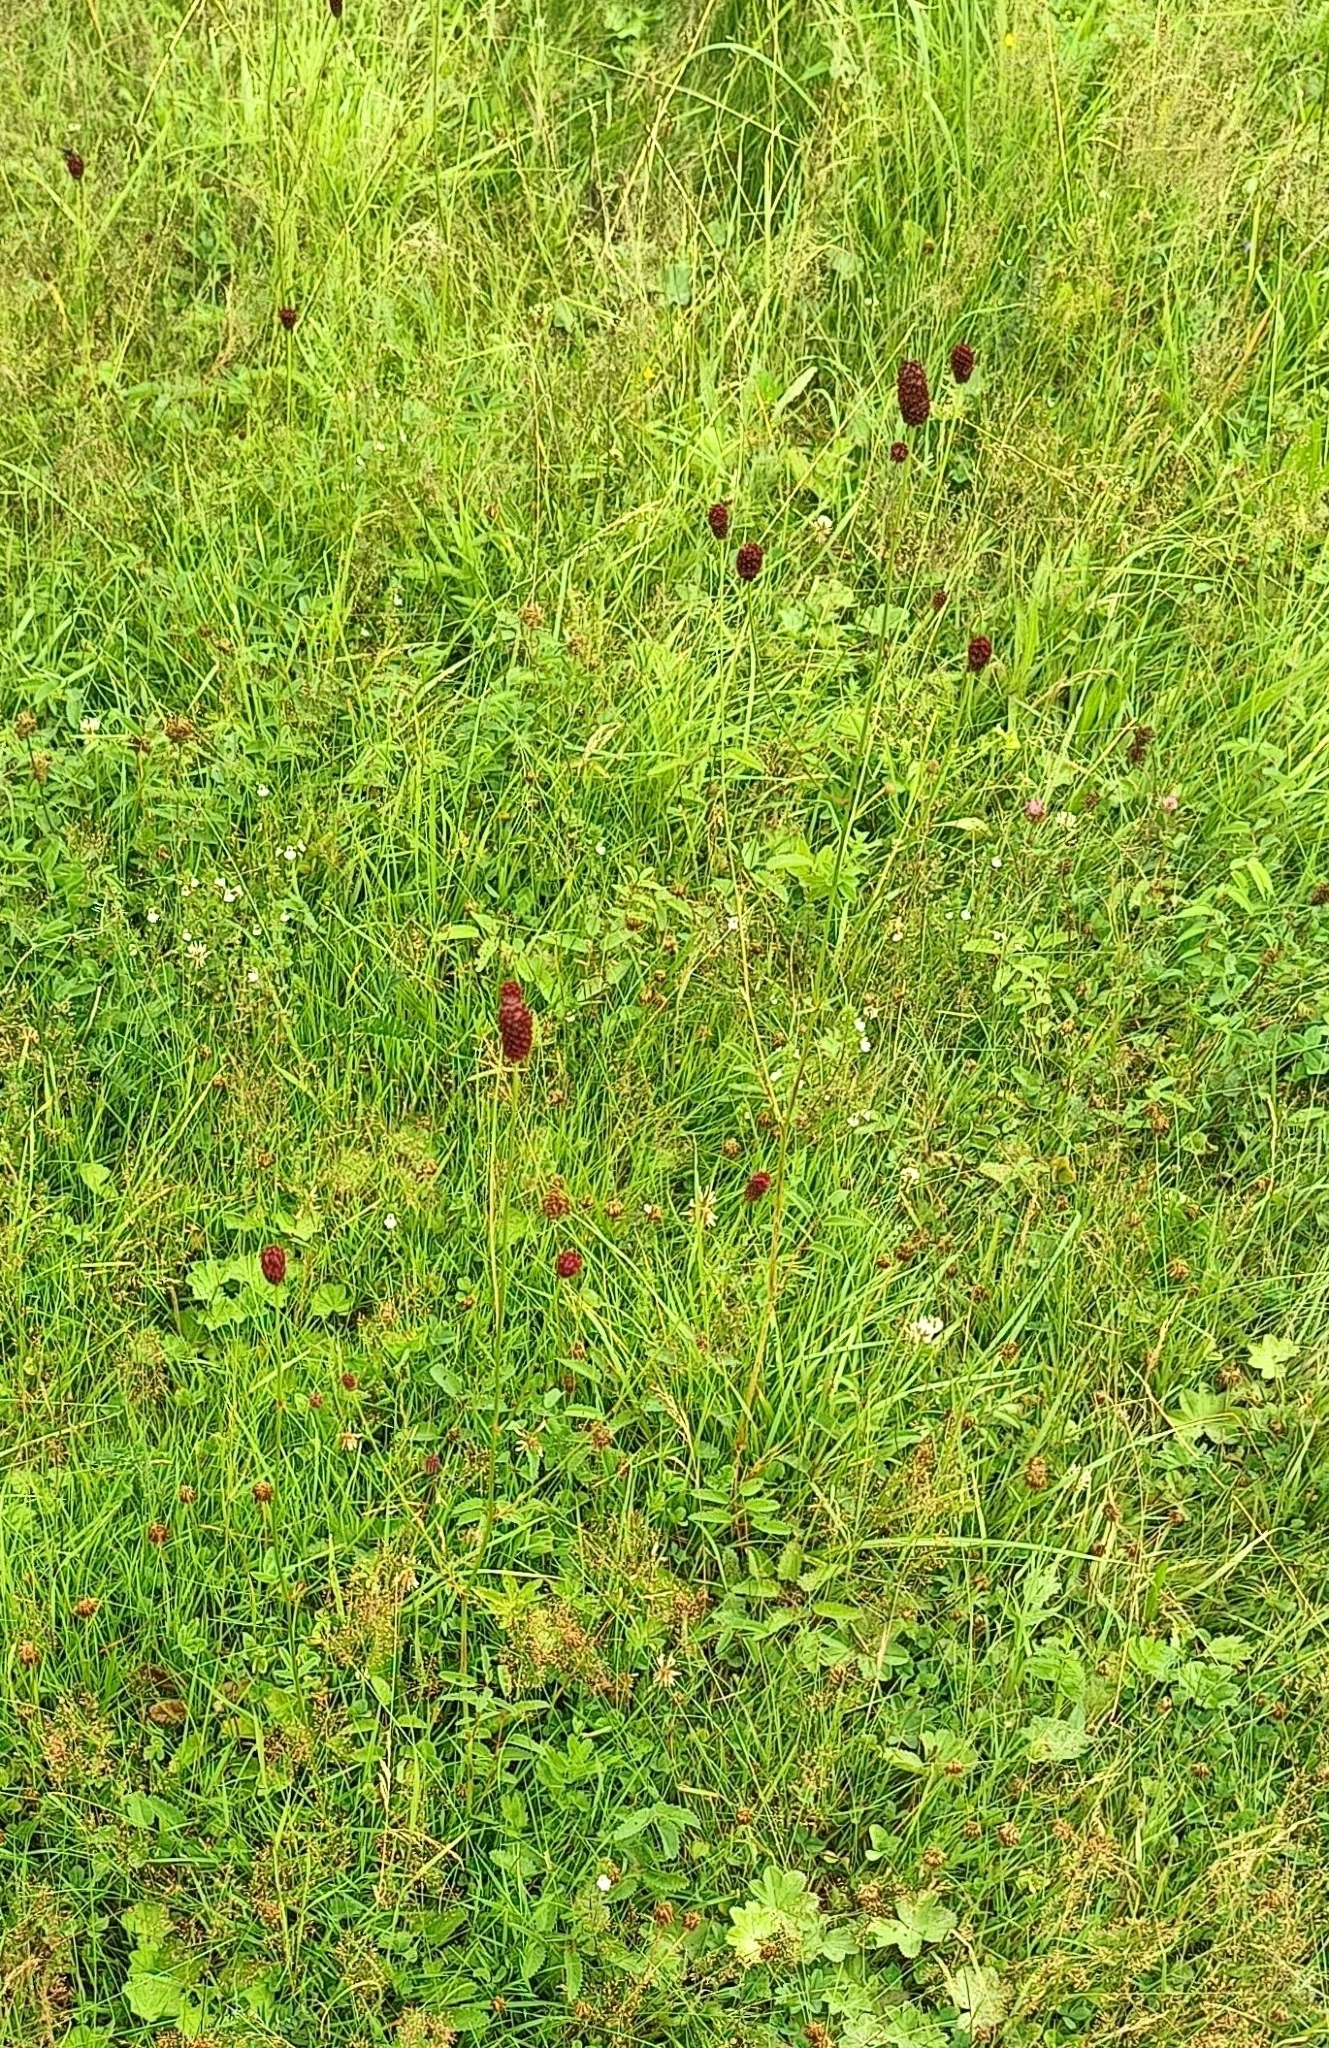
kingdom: Plantae
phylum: Tracheophyta
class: Magnoliopsida
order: Rosales
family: Rosaceae
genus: Sanguisorba
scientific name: Sanguisorba officinalis
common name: Great burnet
